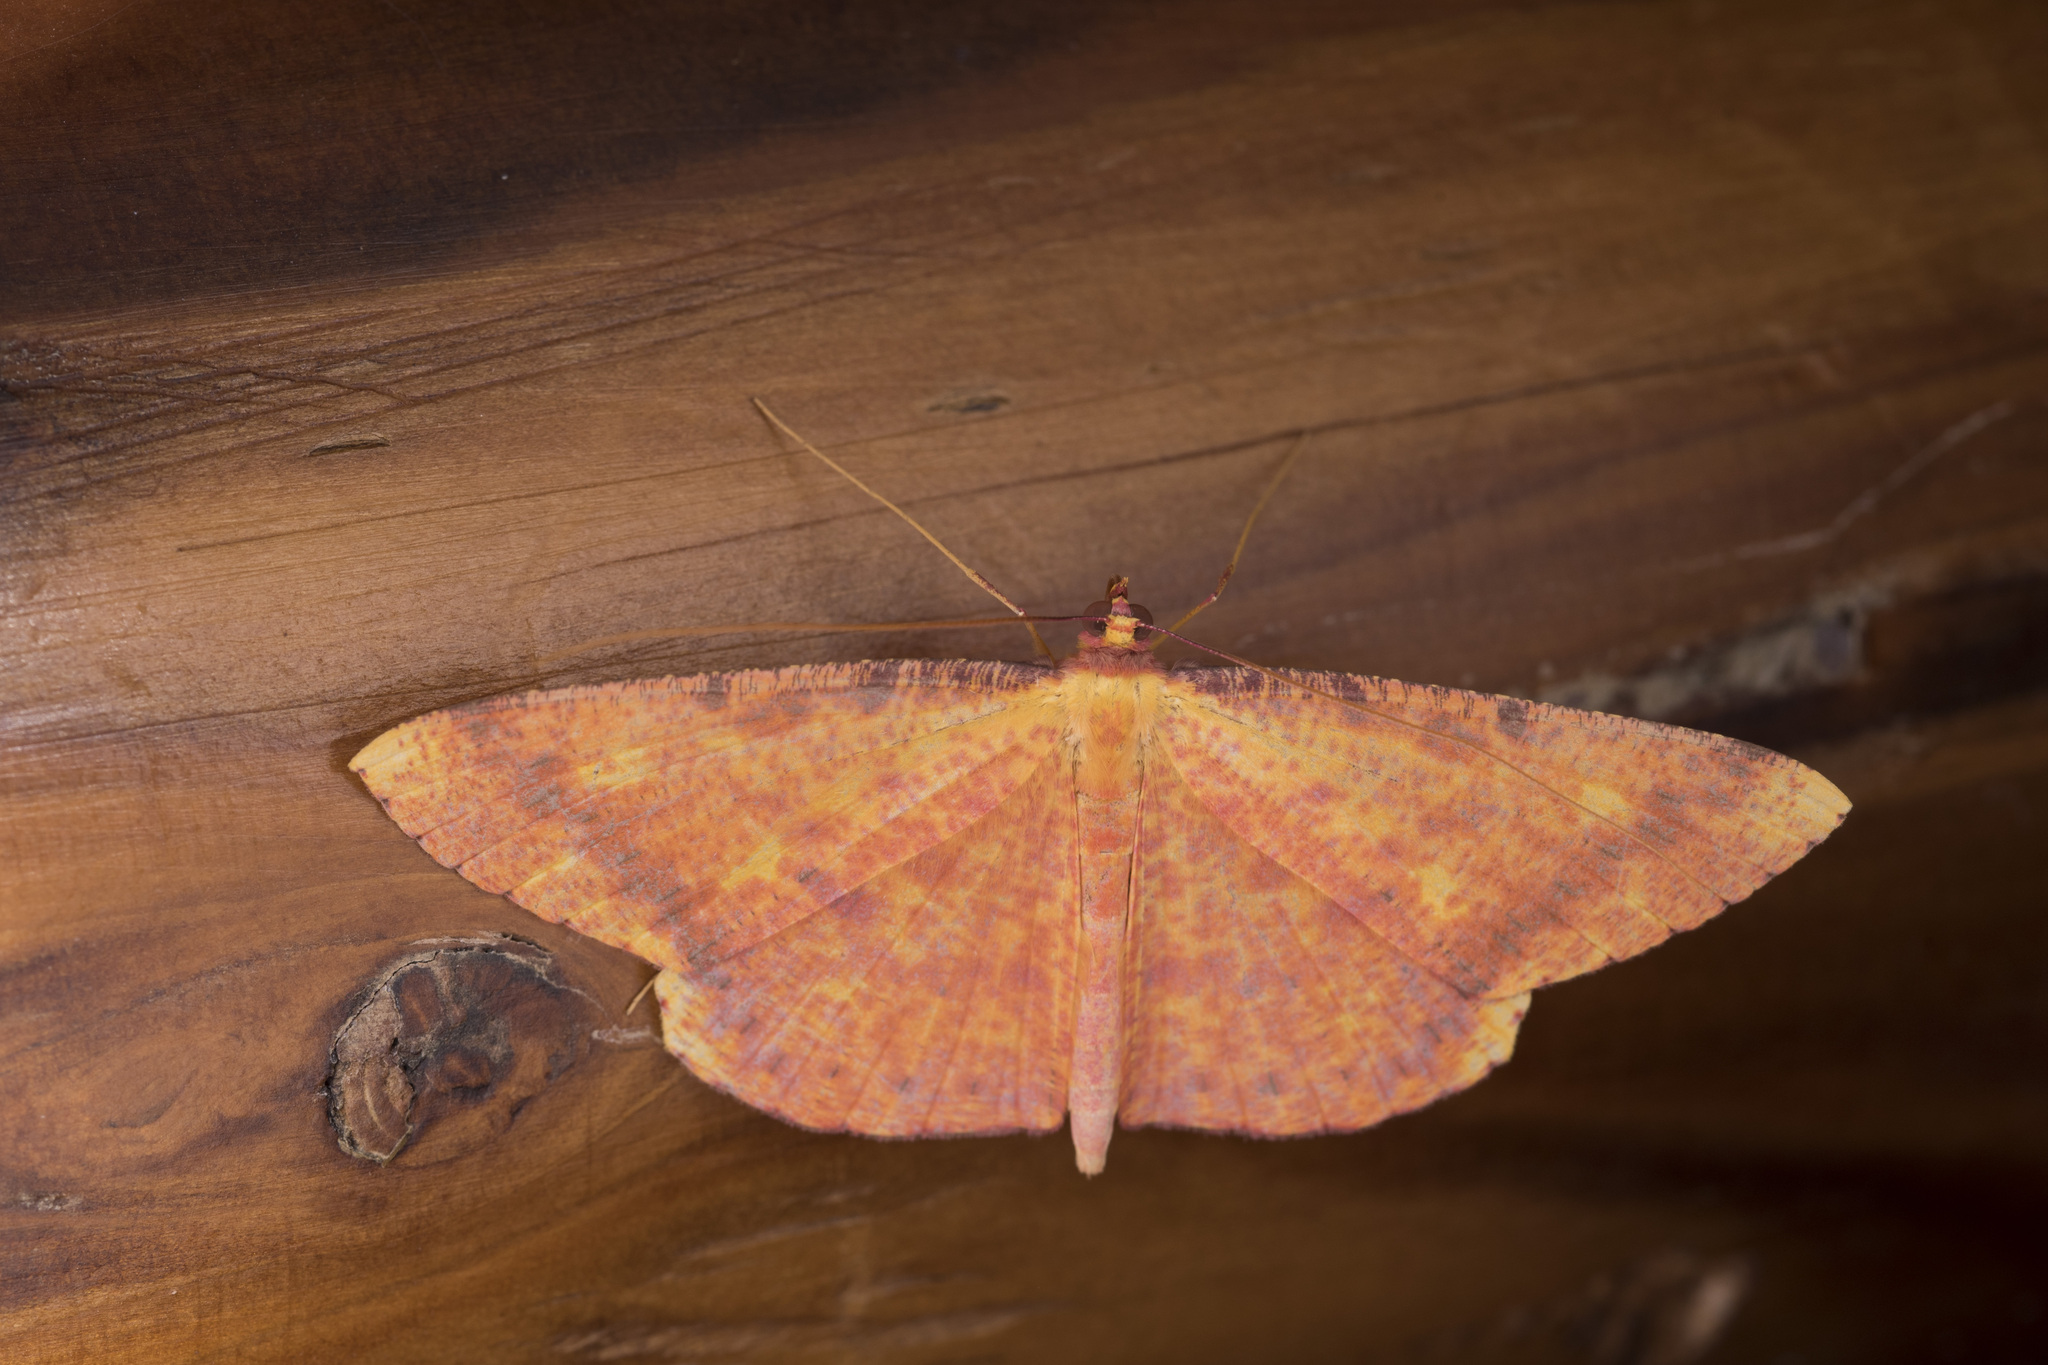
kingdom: Animalia
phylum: Arthropoda
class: Insecta
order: Lepidoptera
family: Geometridae
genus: Eumelea
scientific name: Eumelea ludovicata
